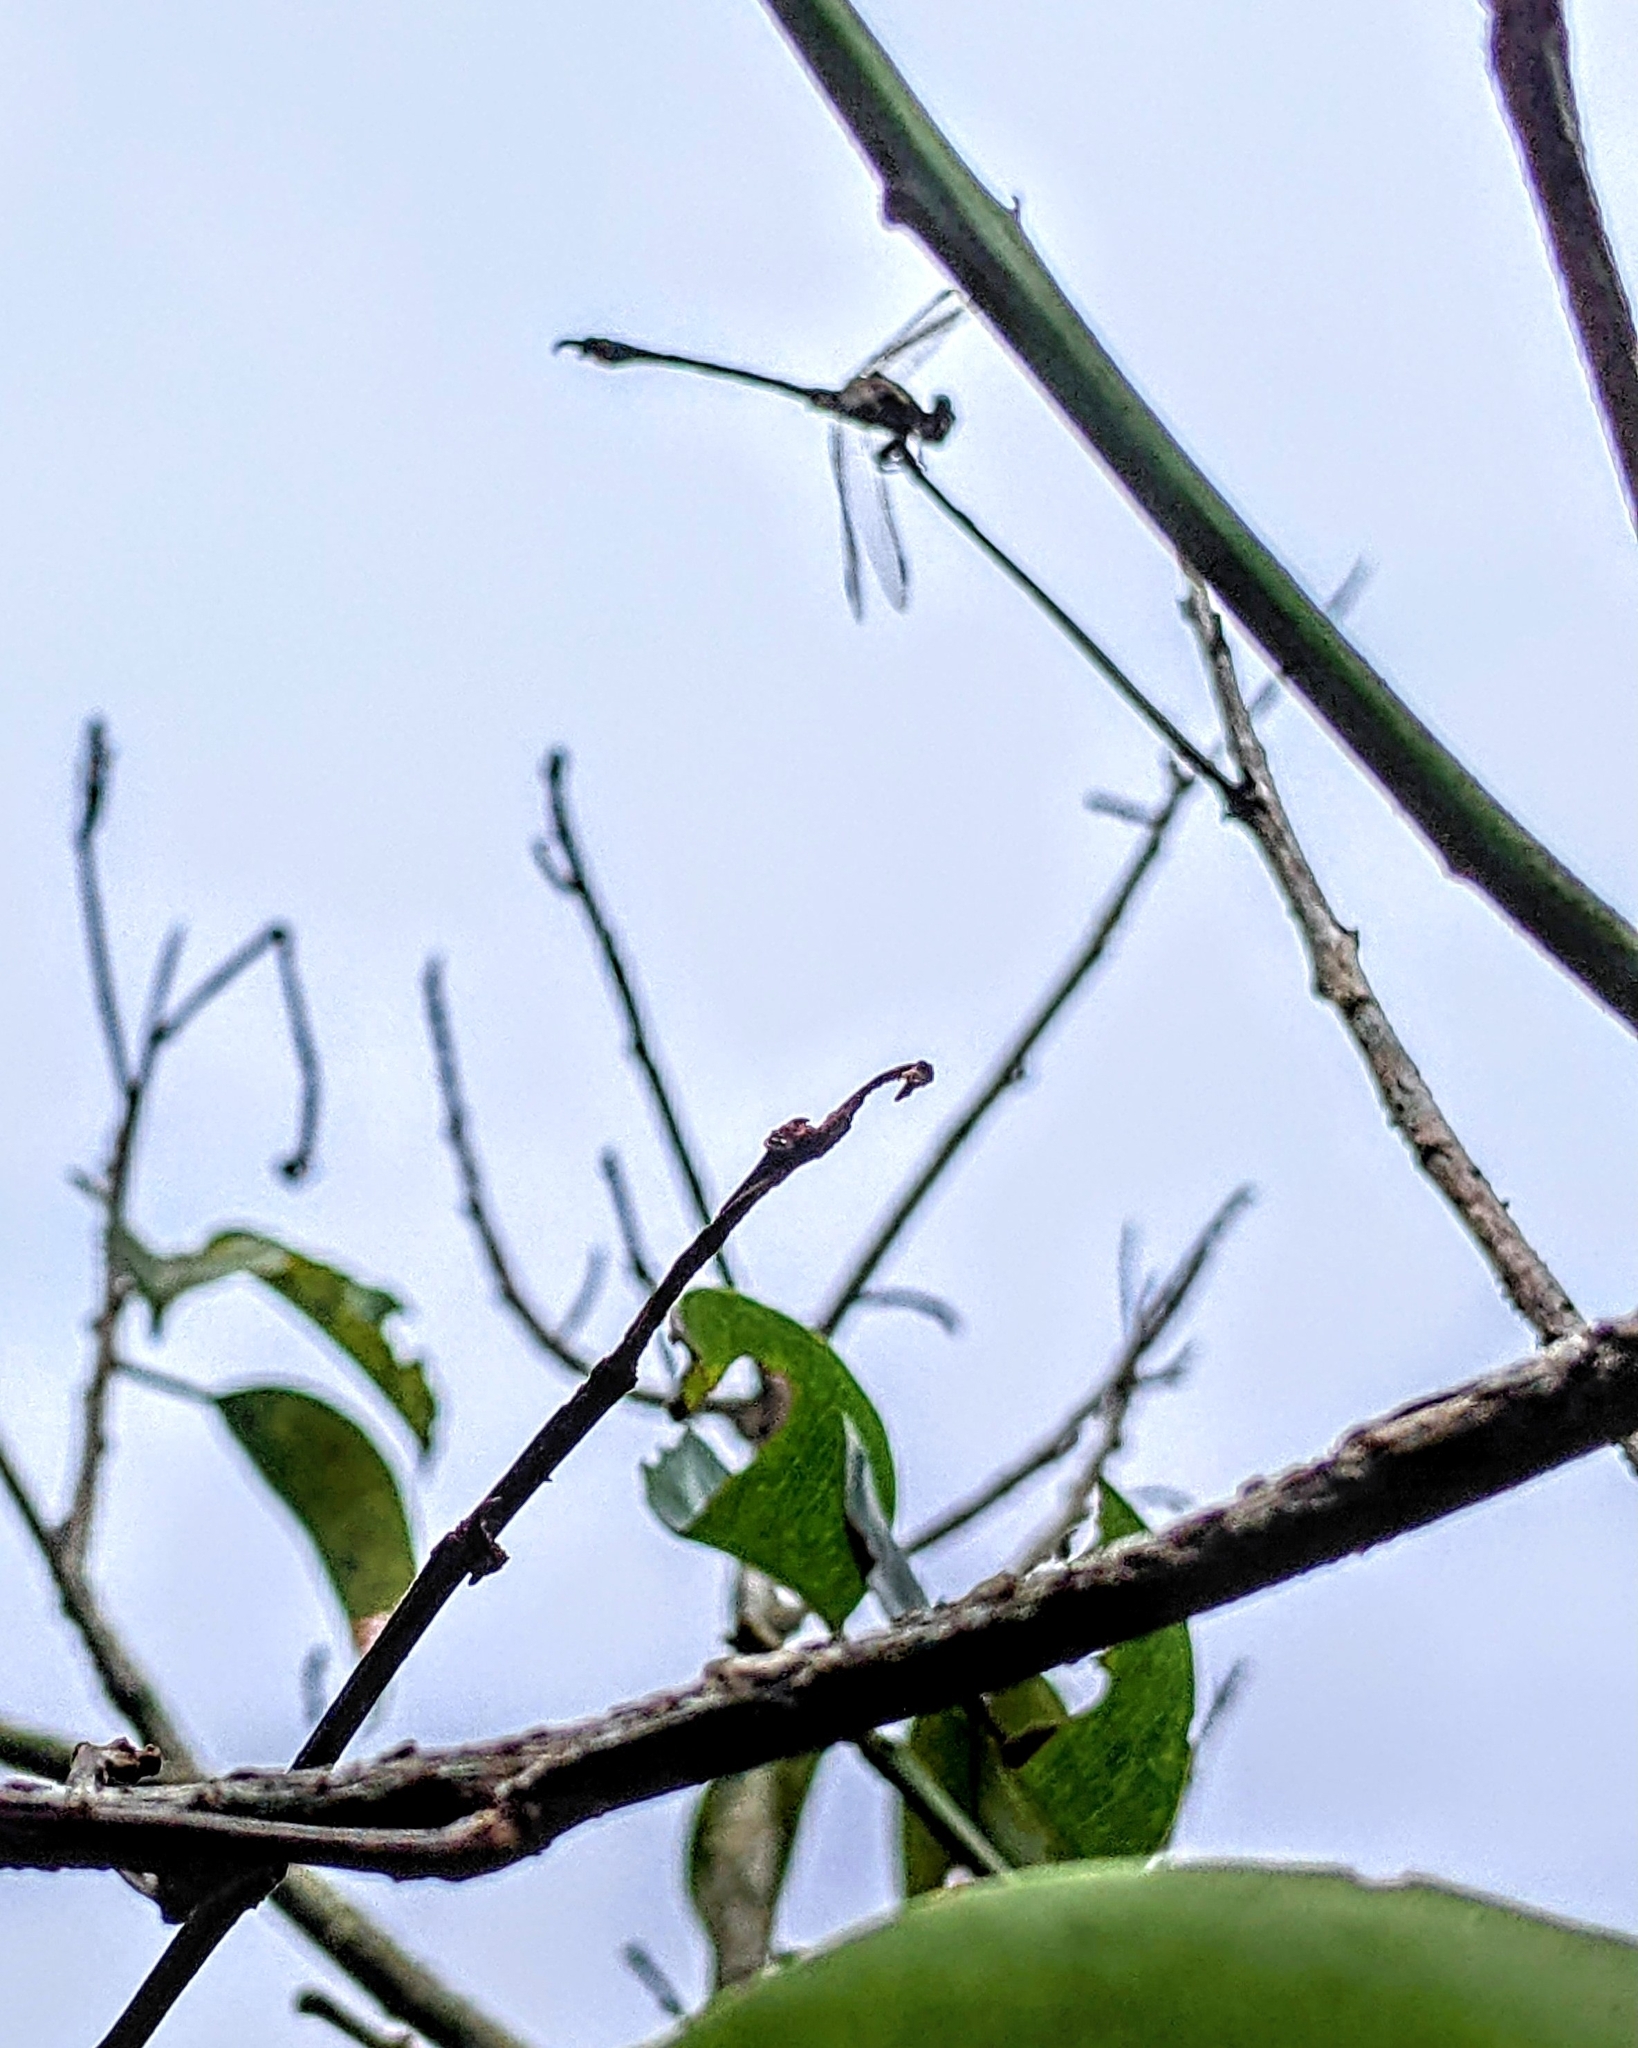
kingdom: Animalia
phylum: Arthropoda
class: Insecta
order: Odonata
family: Gomphidae
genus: Paragomphus
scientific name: Paragomphus capricornis
